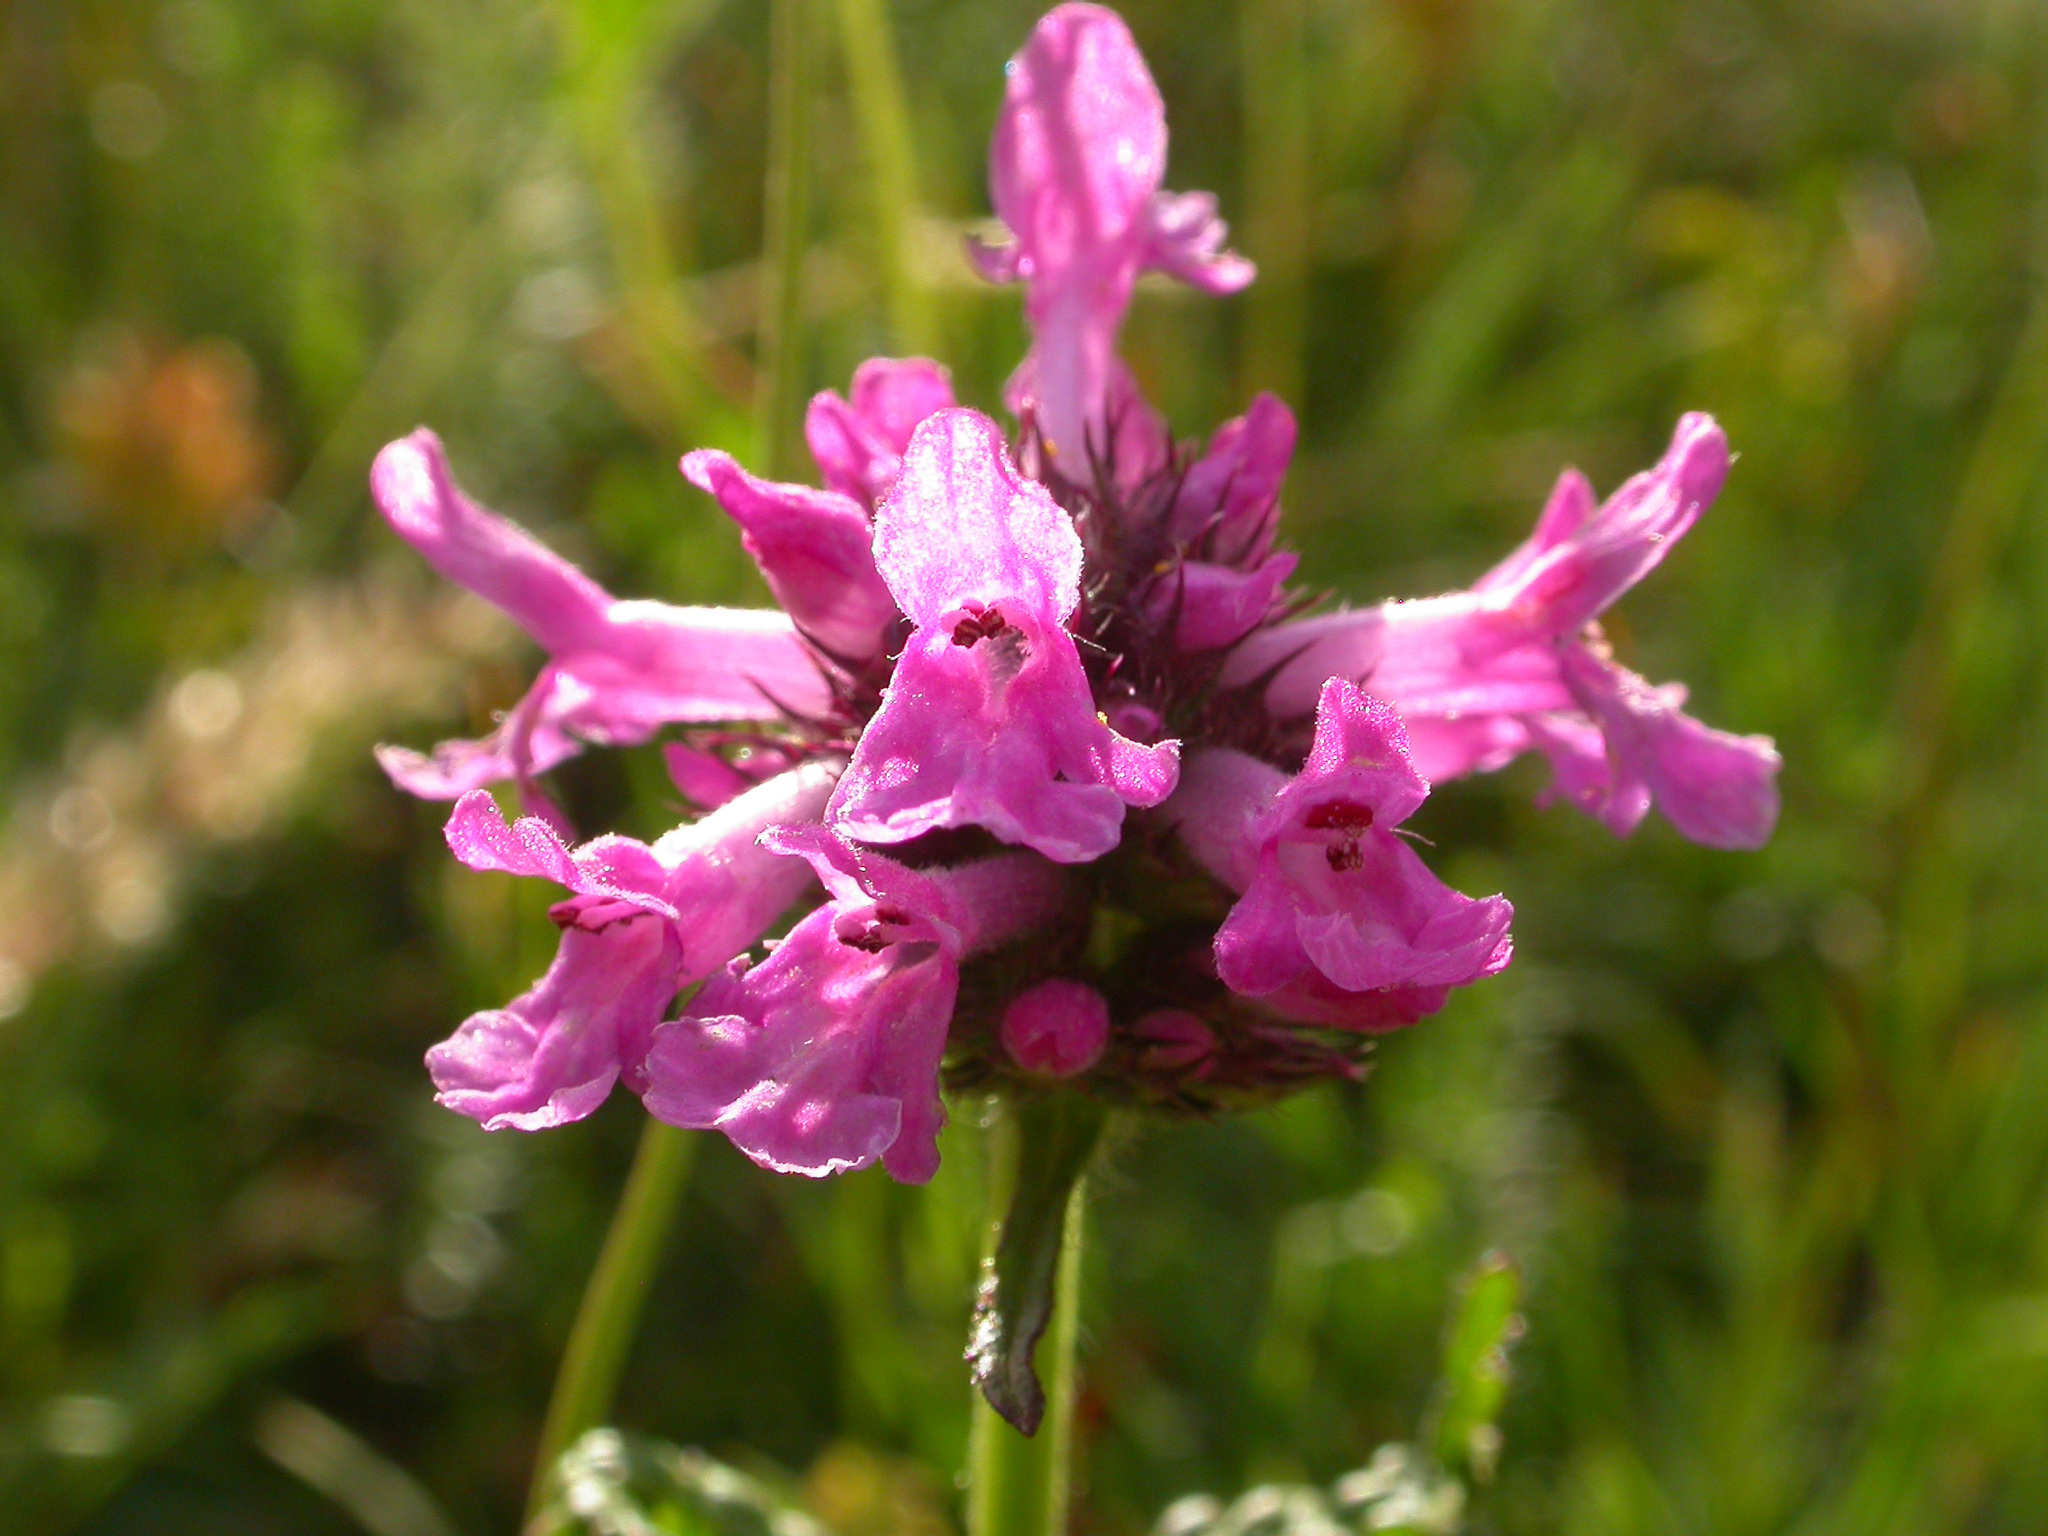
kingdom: Plantae
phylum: Tracheophyta
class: Magnoliopsida
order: Lamiales
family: Lamiaceae
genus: Betonica
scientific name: Betonica officinalis
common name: Bishop's-wort
